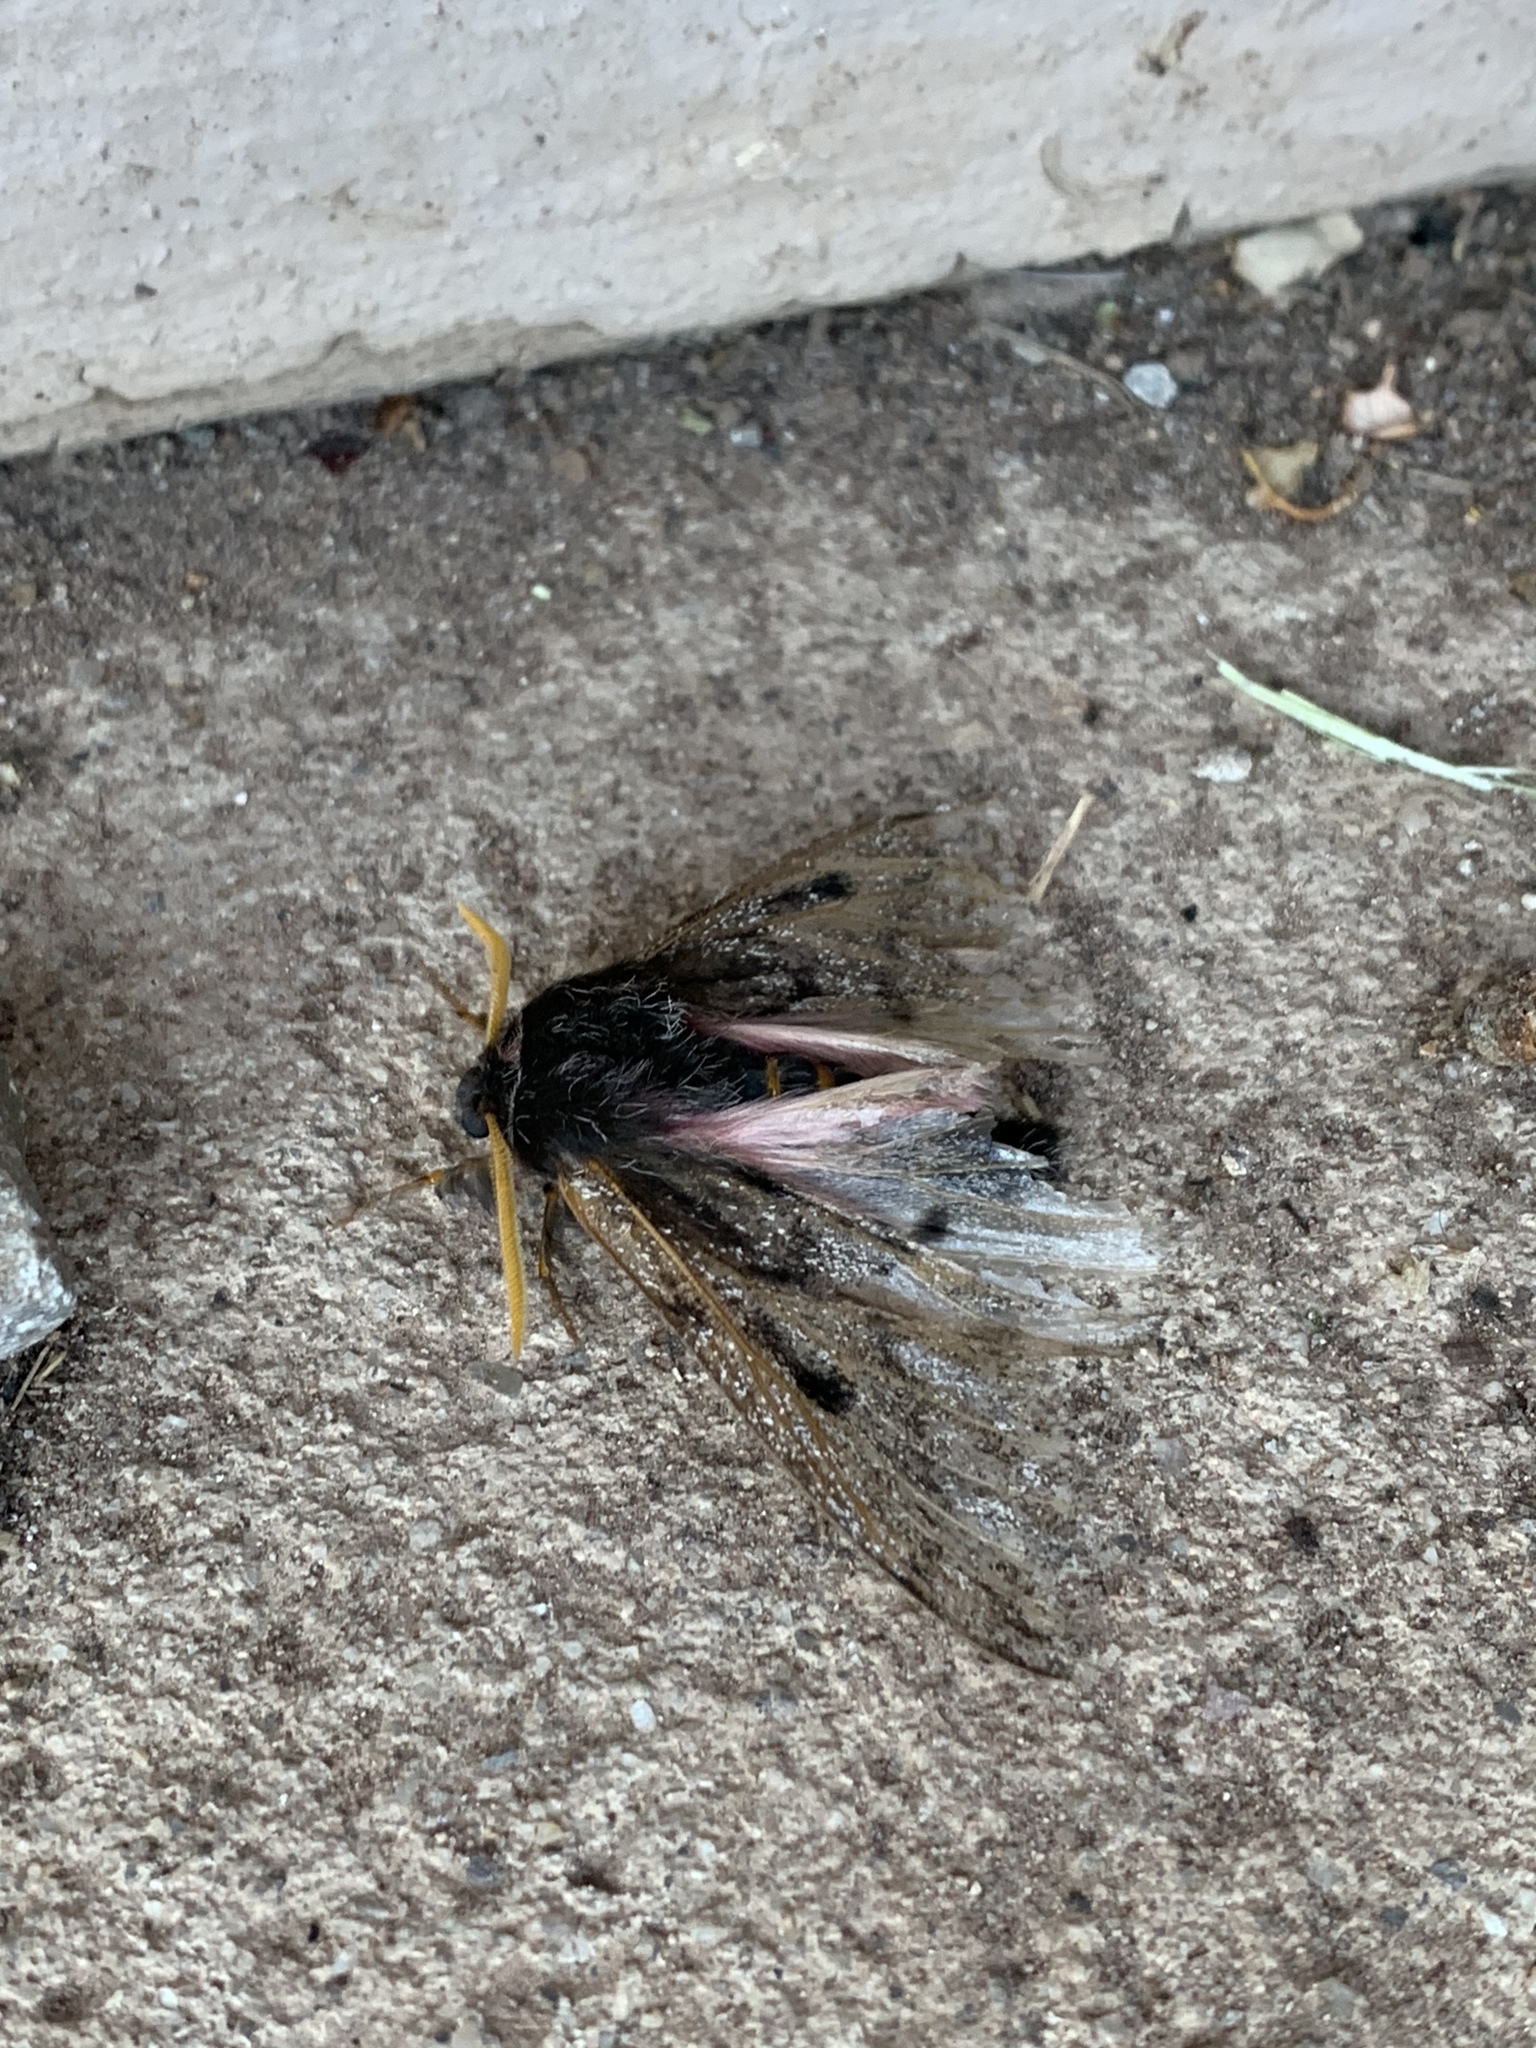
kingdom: Animalia
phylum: Arthropoda
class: Insecta
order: Lepidoptera
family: Saturniidae
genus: Coloradia
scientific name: Coloradia pandora
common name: Pandora pinemoth
